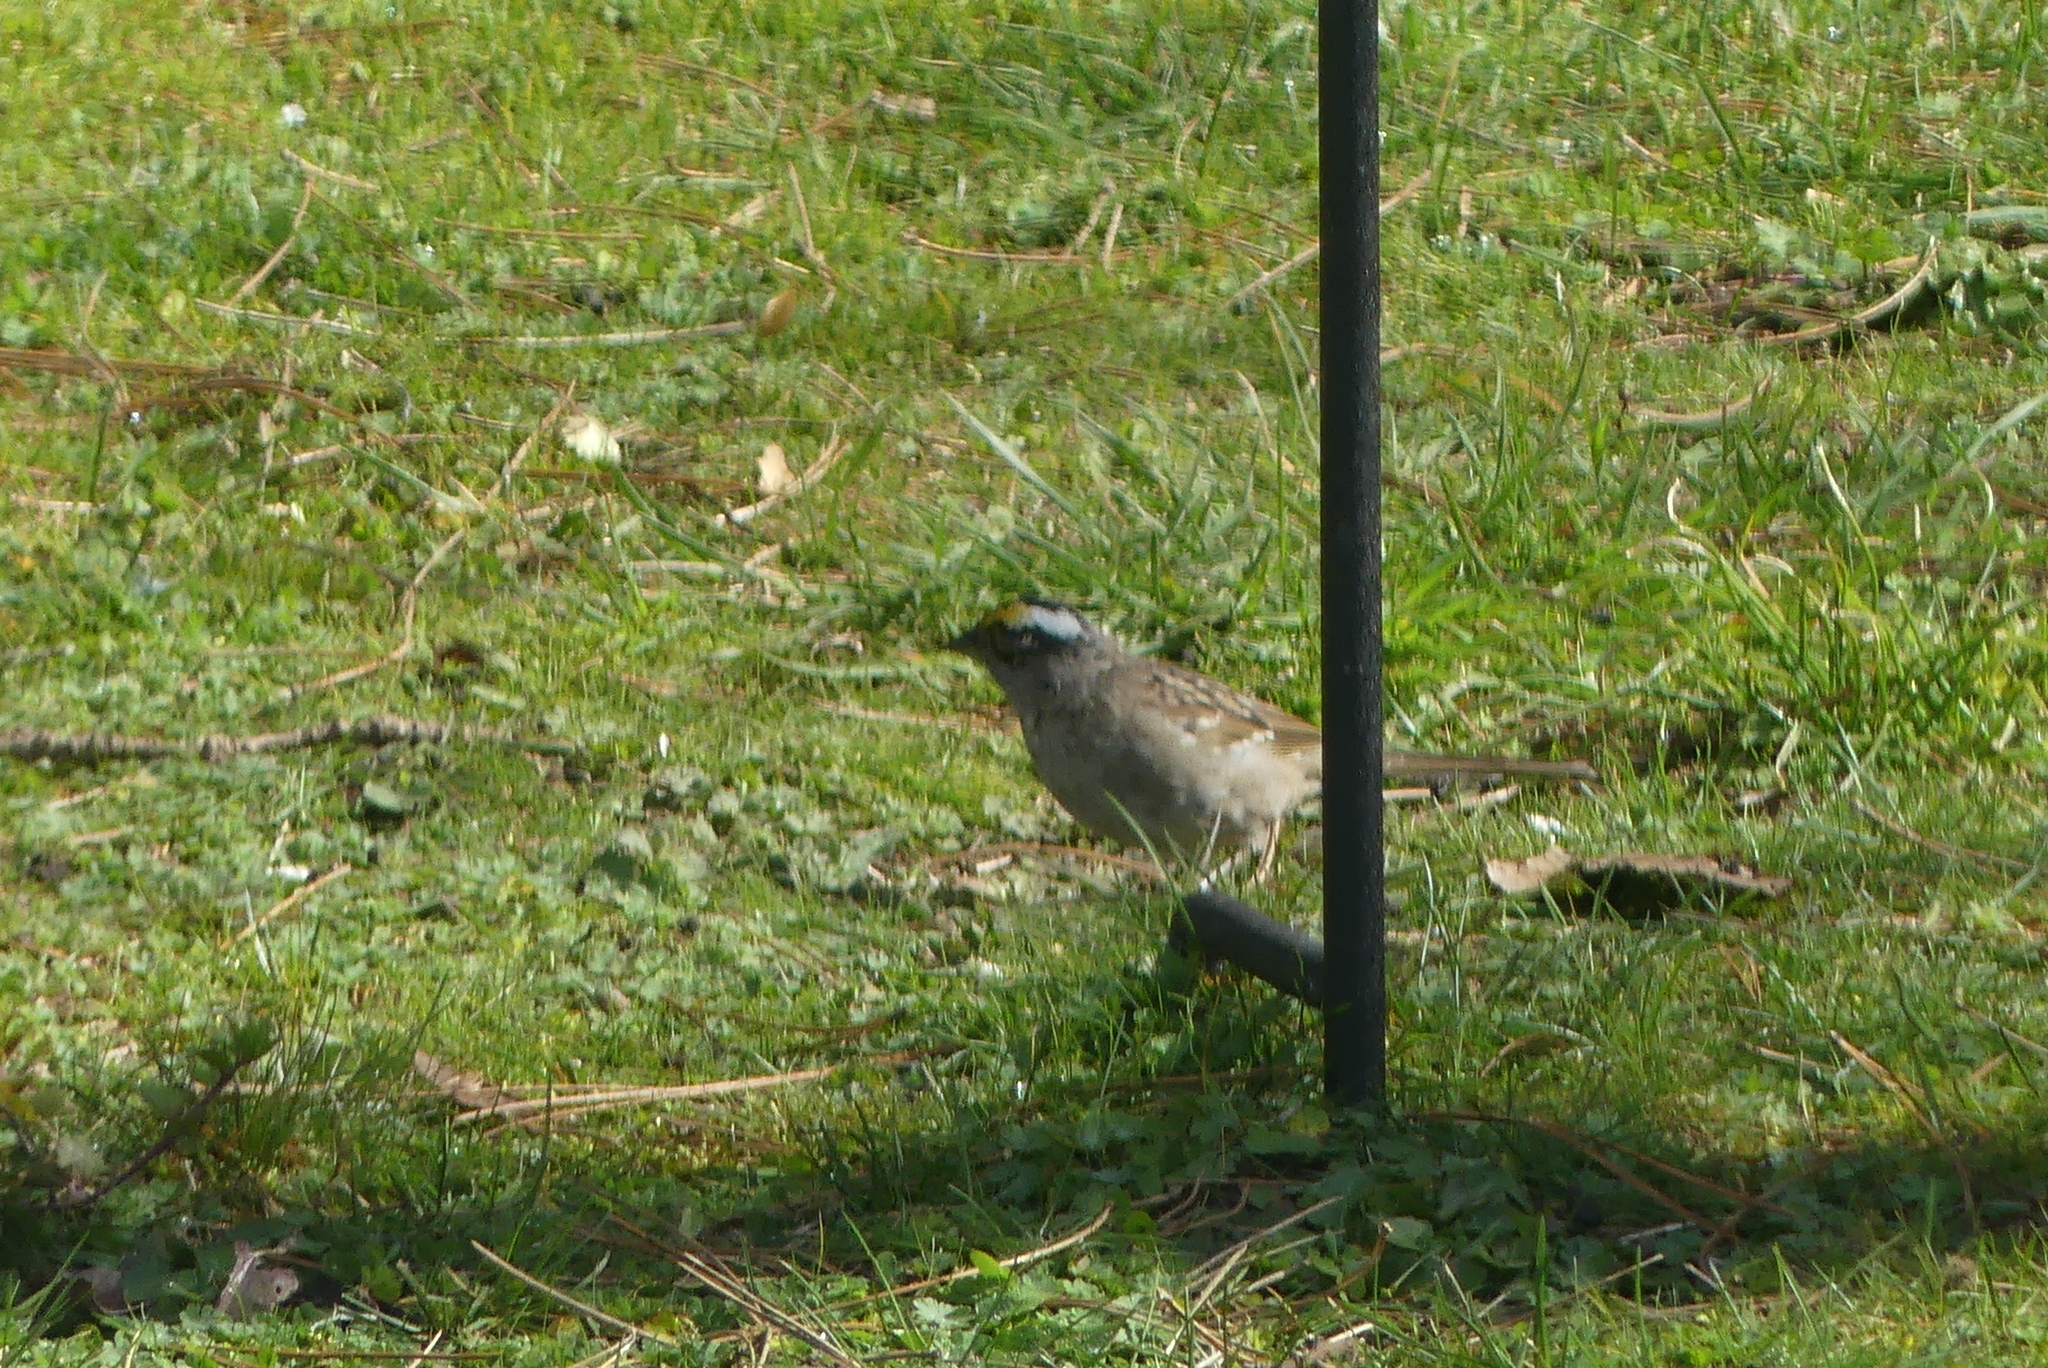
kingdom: Animalia
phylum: Chordata
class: Aves
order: Passeriformes
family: Passerellidae
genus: Zonotrichia
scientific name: Zonotrichia atricapilla
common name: Golden-crowned sparrow
